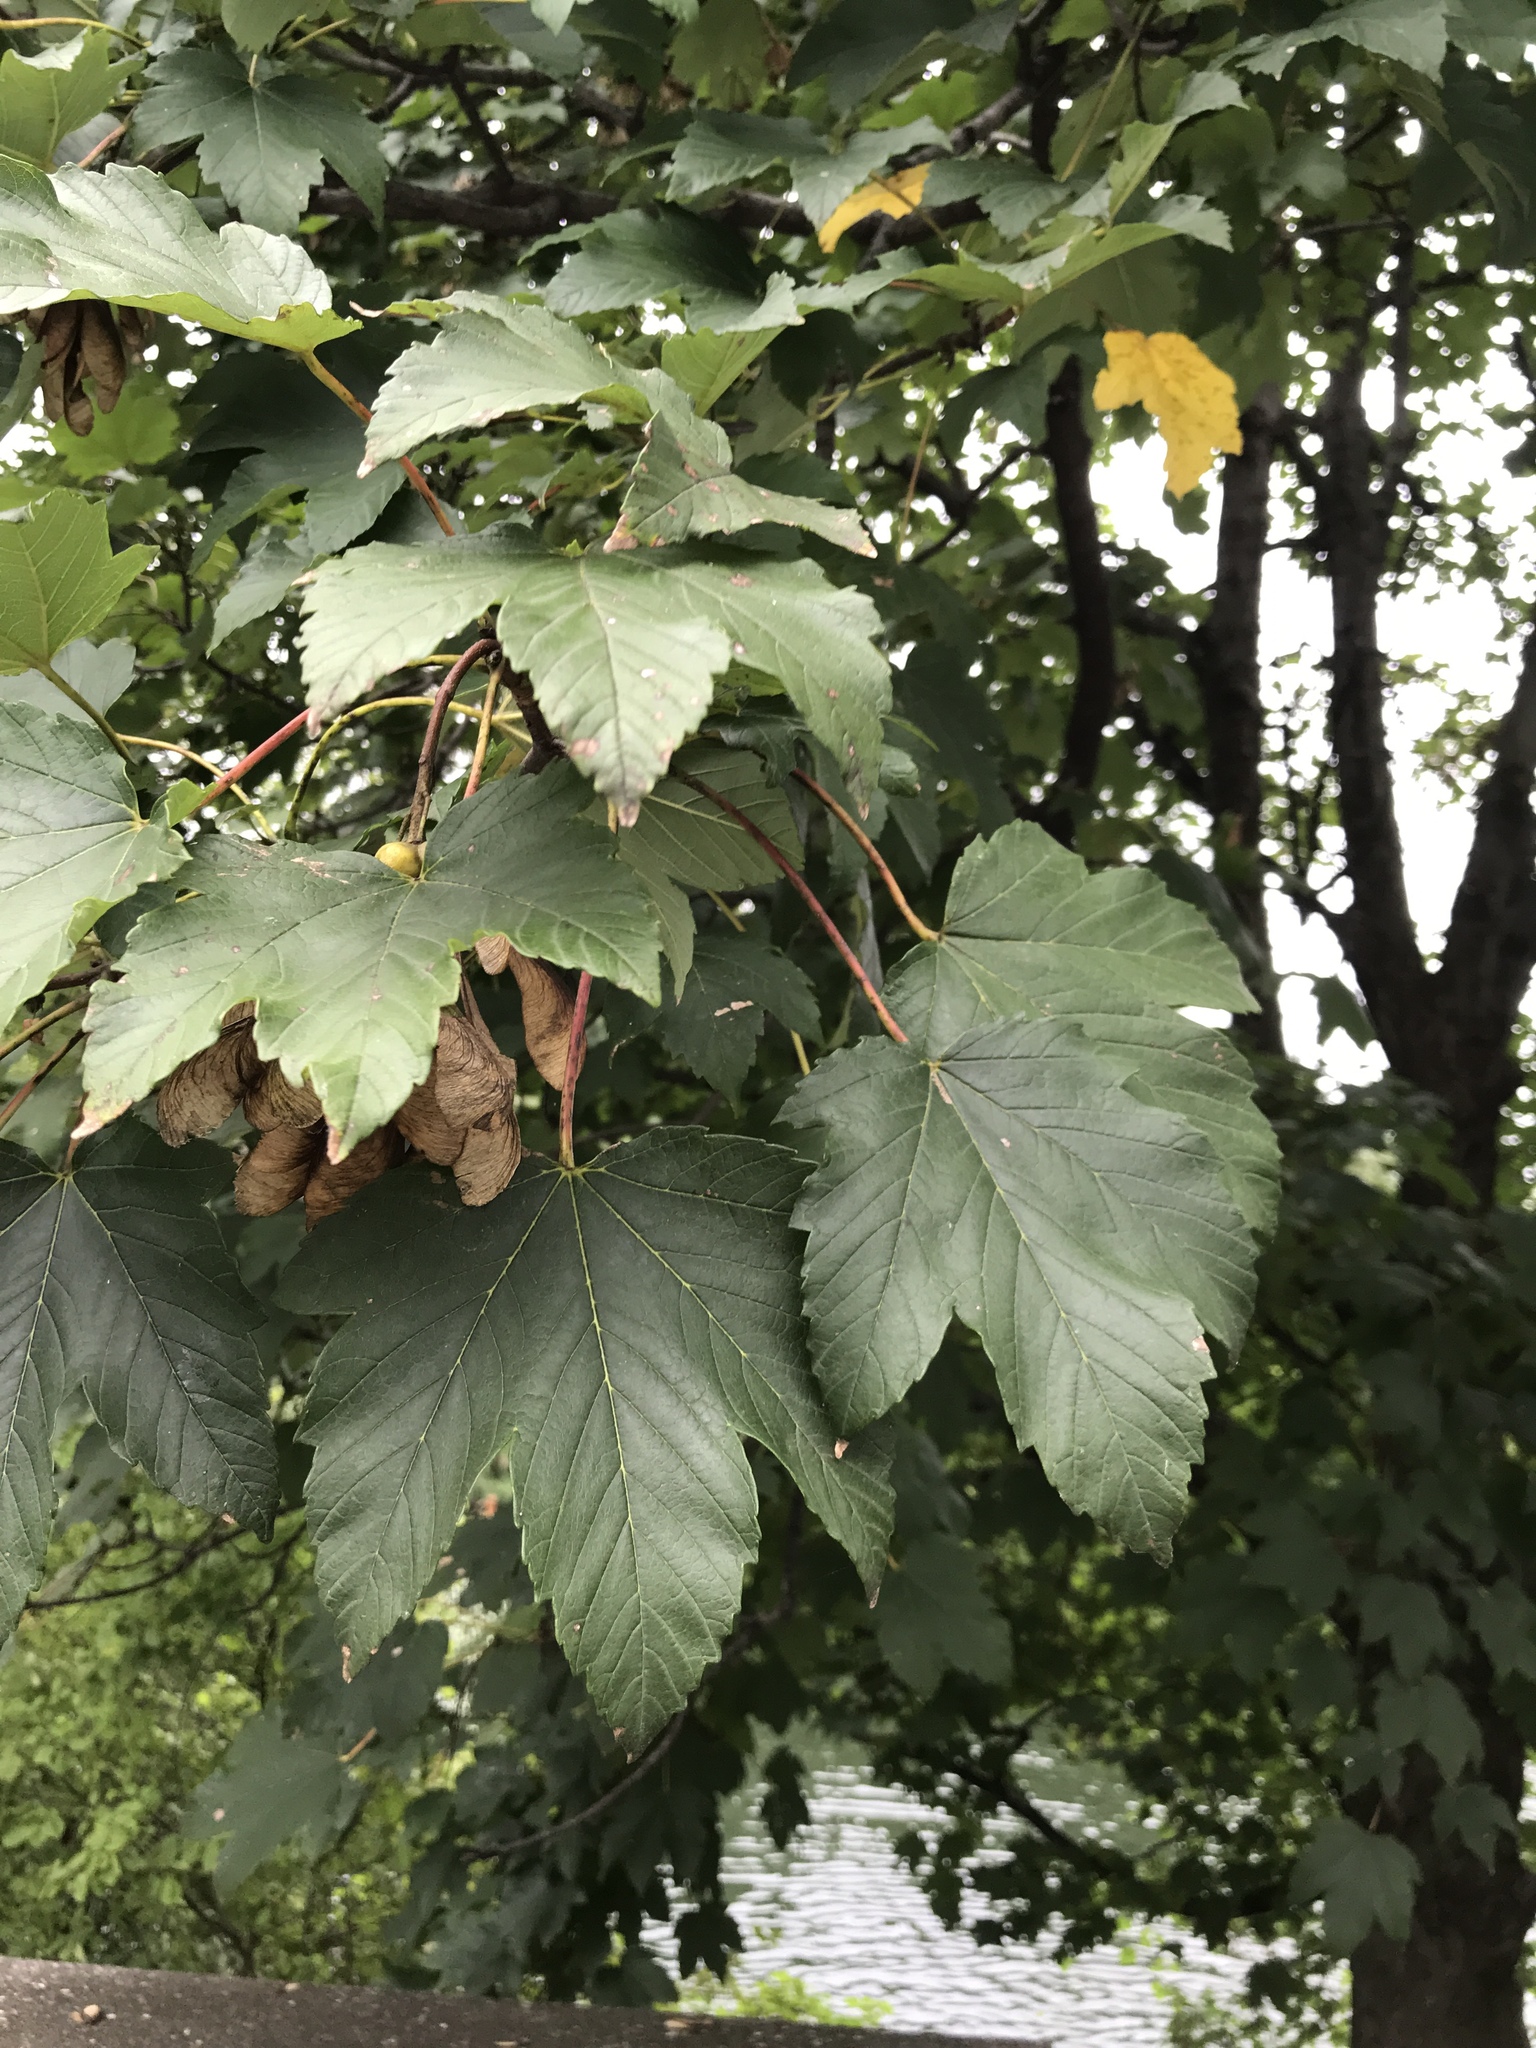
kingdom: Plantae
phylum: Tracheophyta
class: Magnoliopsida
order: Sapindales
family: Sapindaceae
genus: Acer
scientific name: Acer pseudoplatanus
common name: Sycamore
